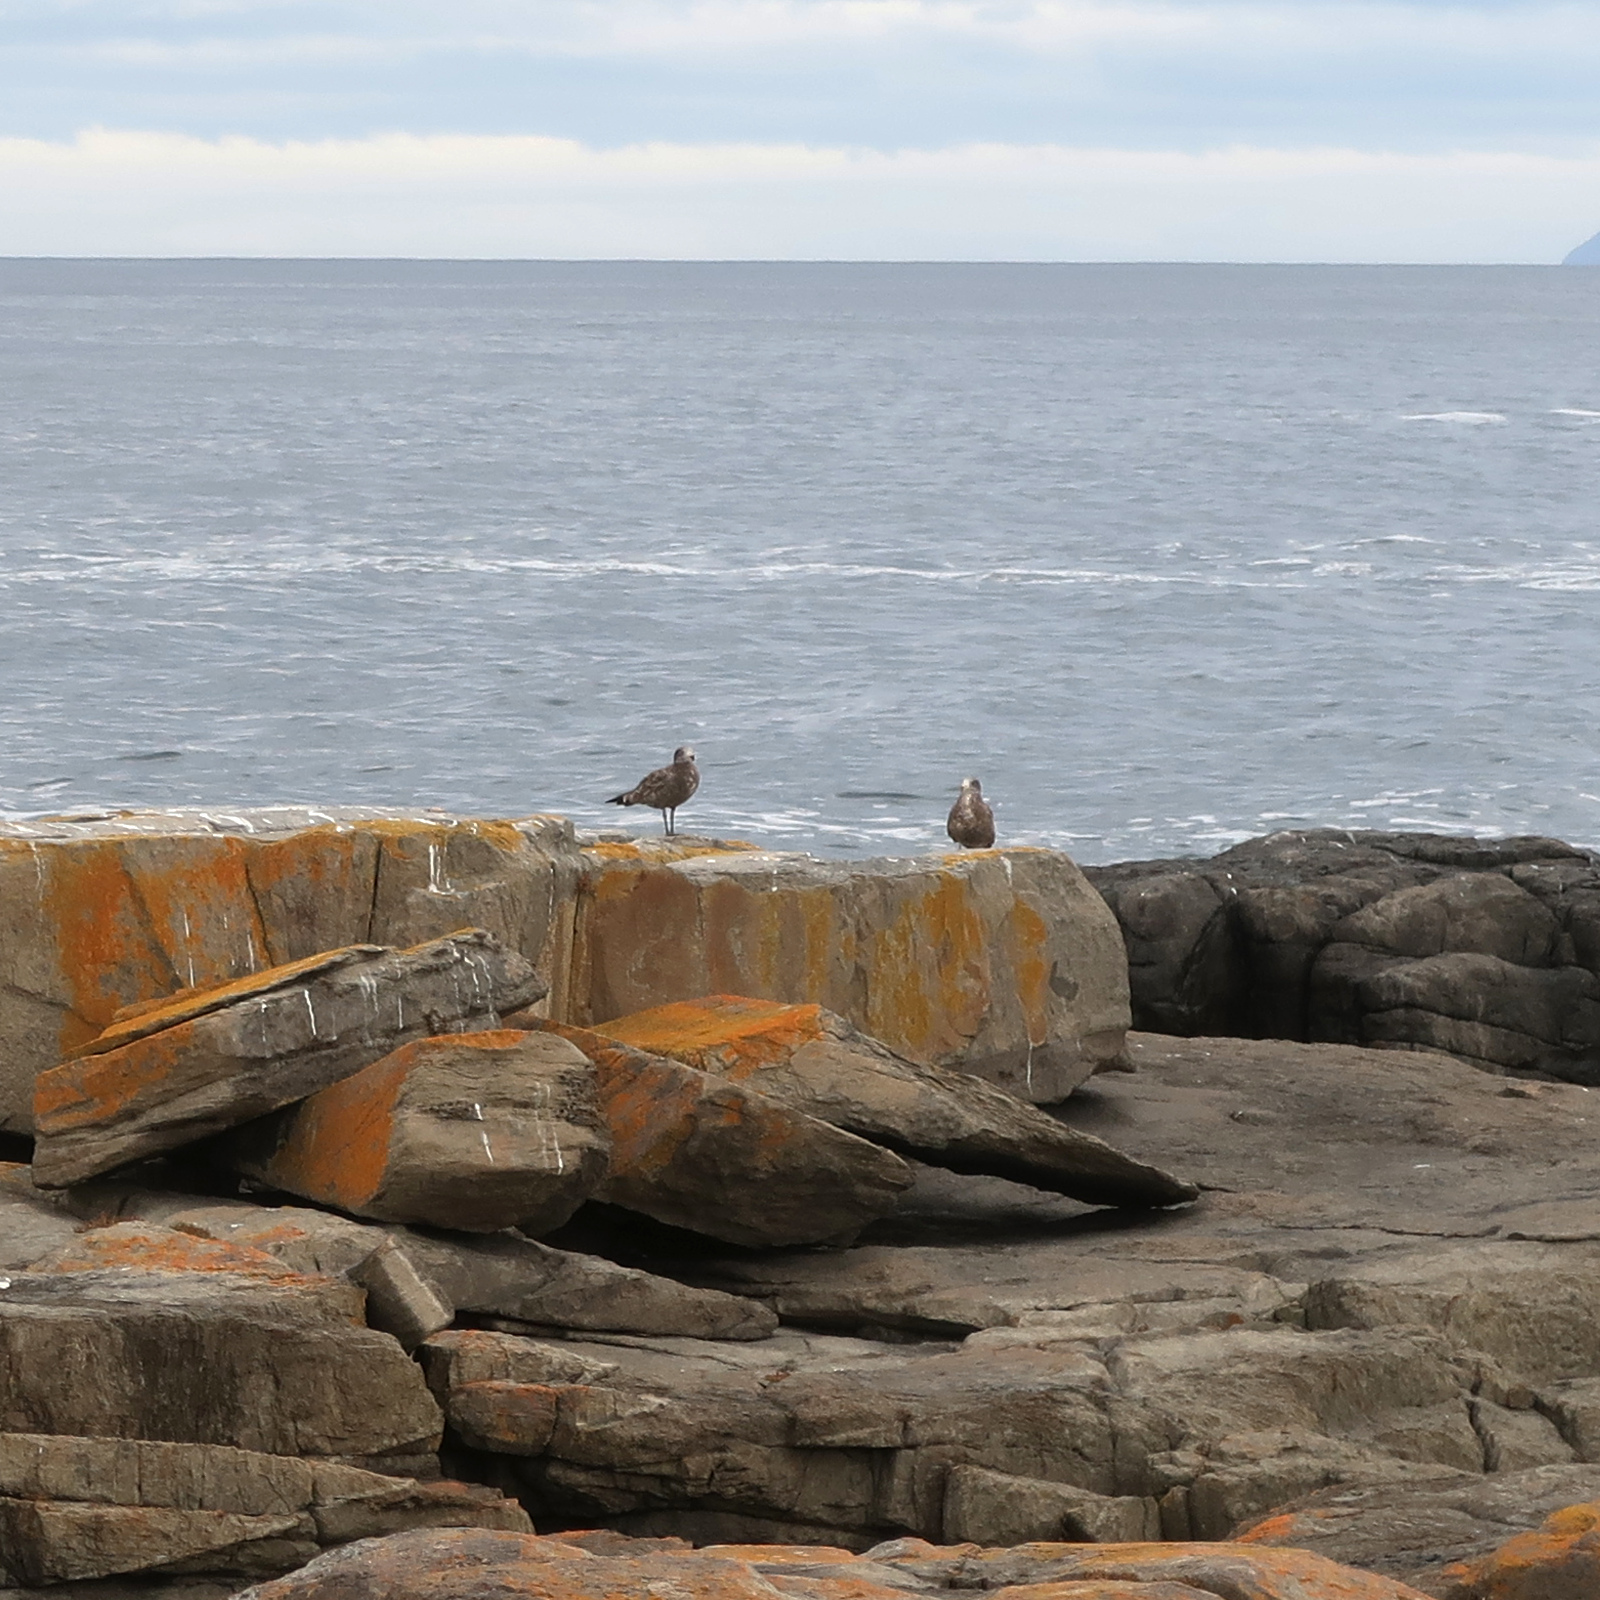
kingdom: Animalia
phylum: Chordata
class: Aves
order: Charadriiformes
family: Laridae
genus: Larus
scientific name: Larus pacificus
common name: Pacific gull
